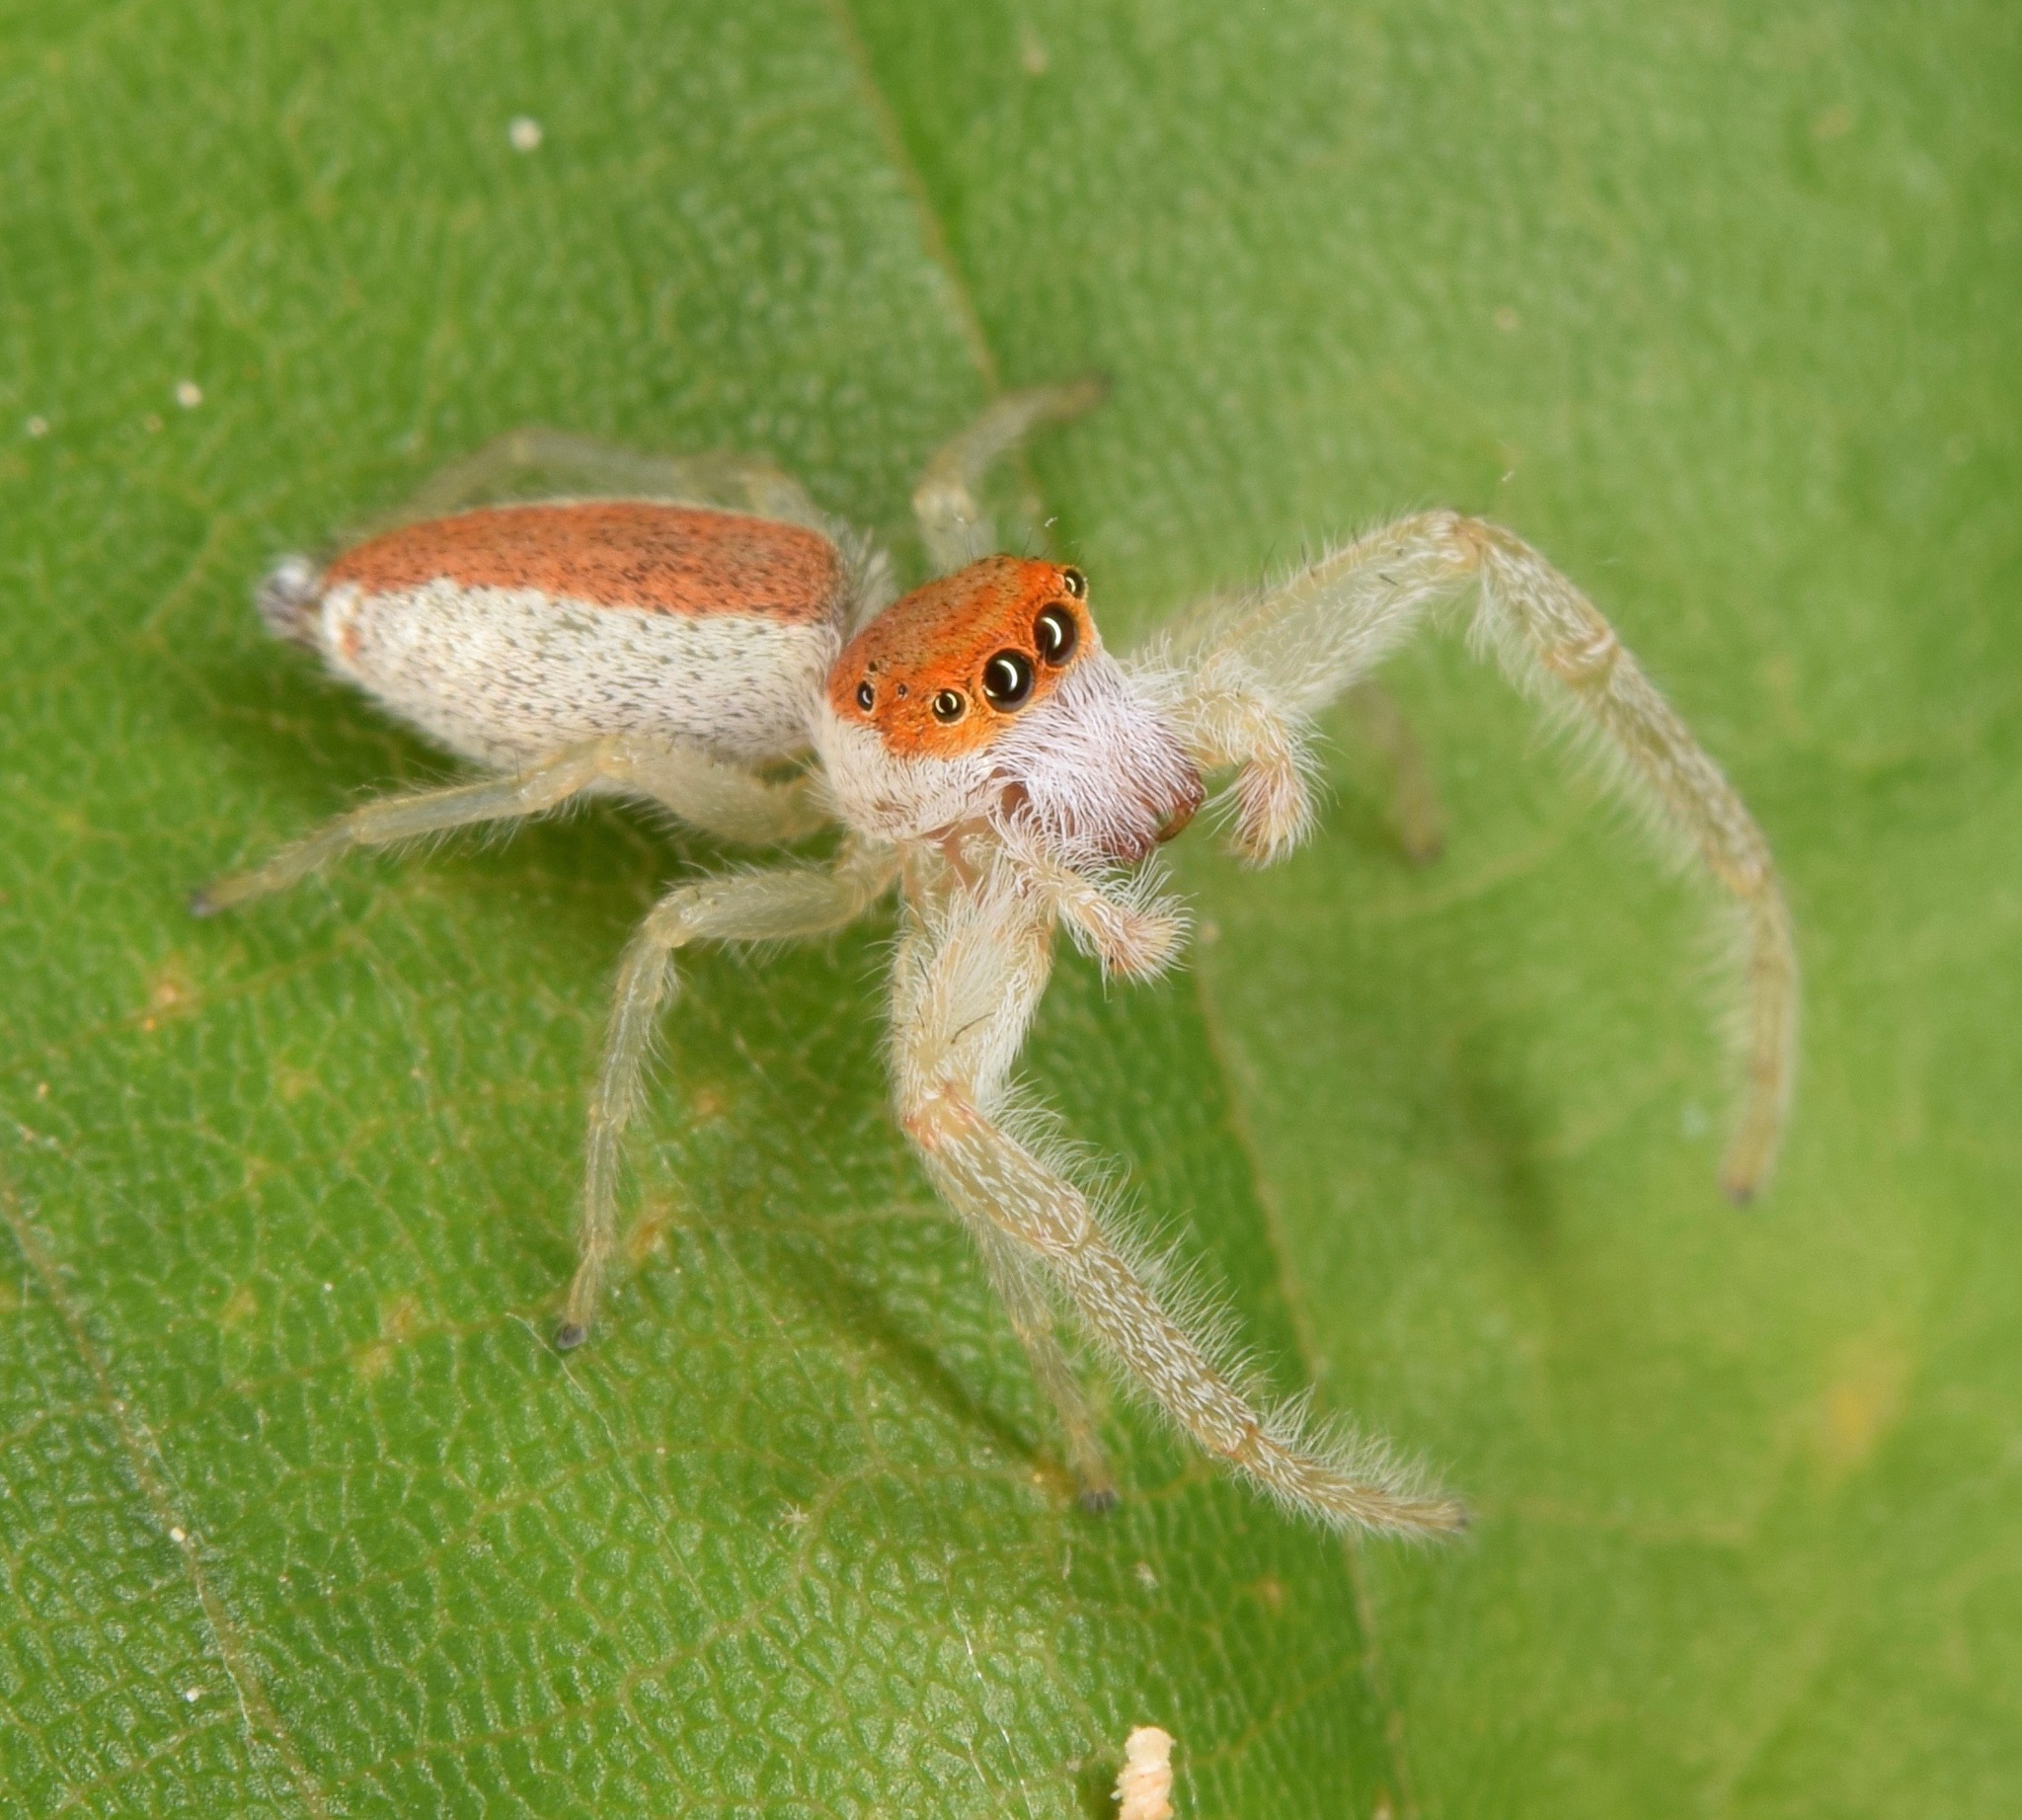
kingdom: Animalia
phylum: Arthropoda
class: Arachnida
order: Araneae
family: Salticidae
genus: Hentzia
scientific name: Hentzia mitrata
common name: White-jawed jumping spider
